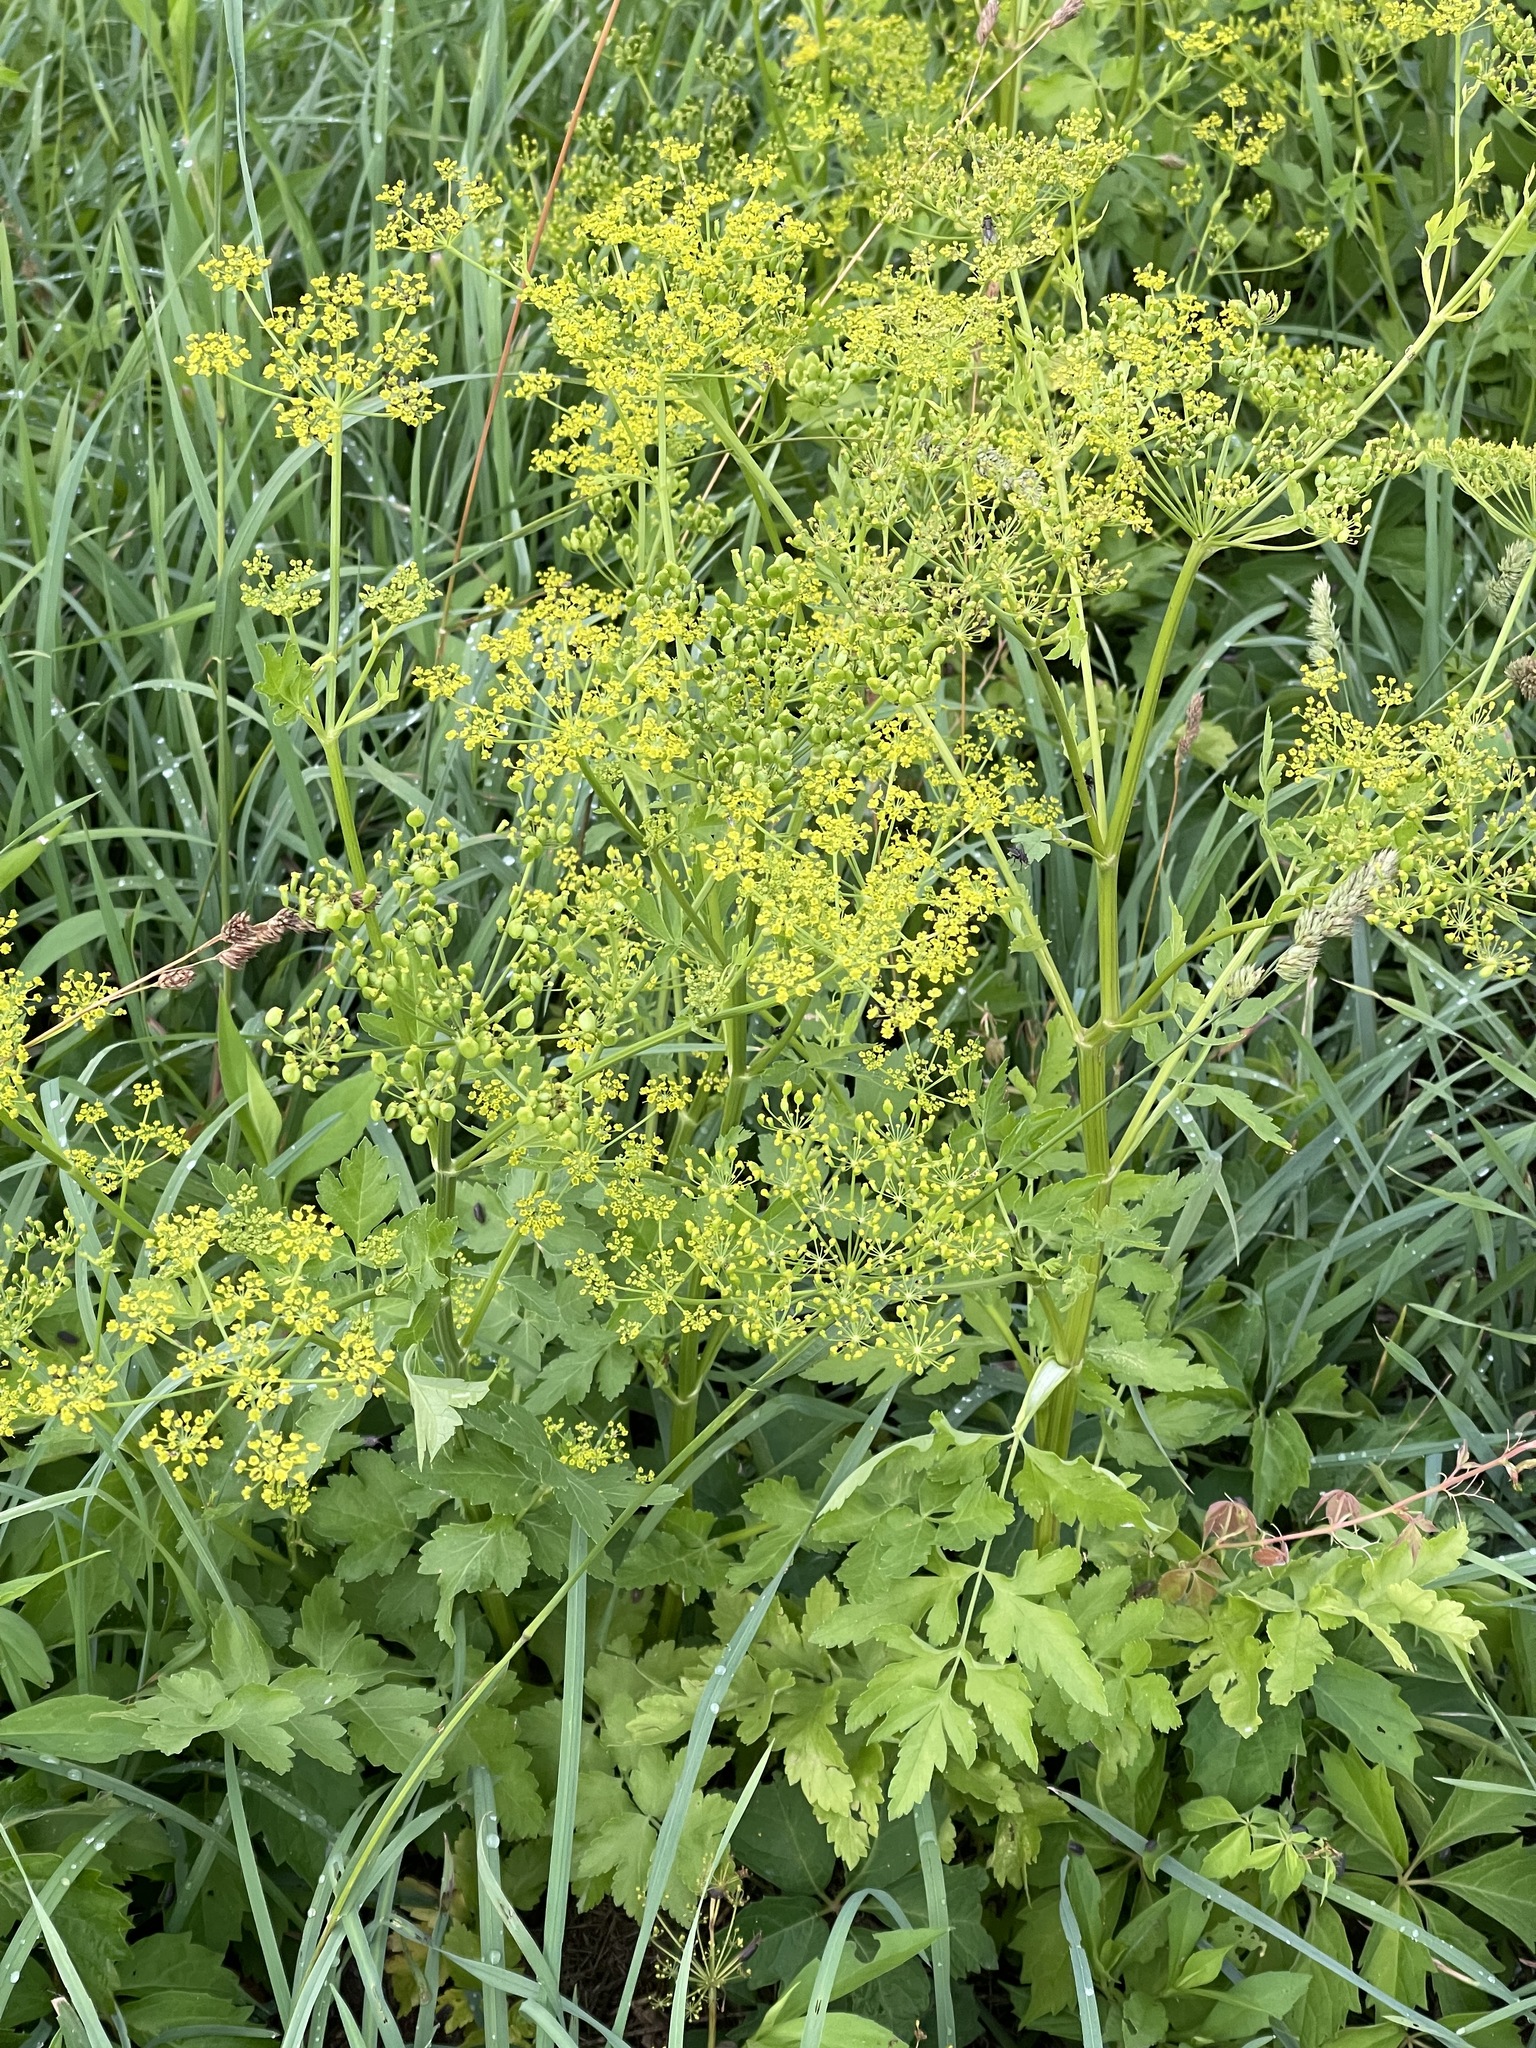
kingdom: Plantae
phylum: Tracheophyta
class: Magnoliopsida
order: Apiales
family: Apiaceae
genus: Pastinaca
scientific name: Pastinaca sativa
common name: Wild parsnip
